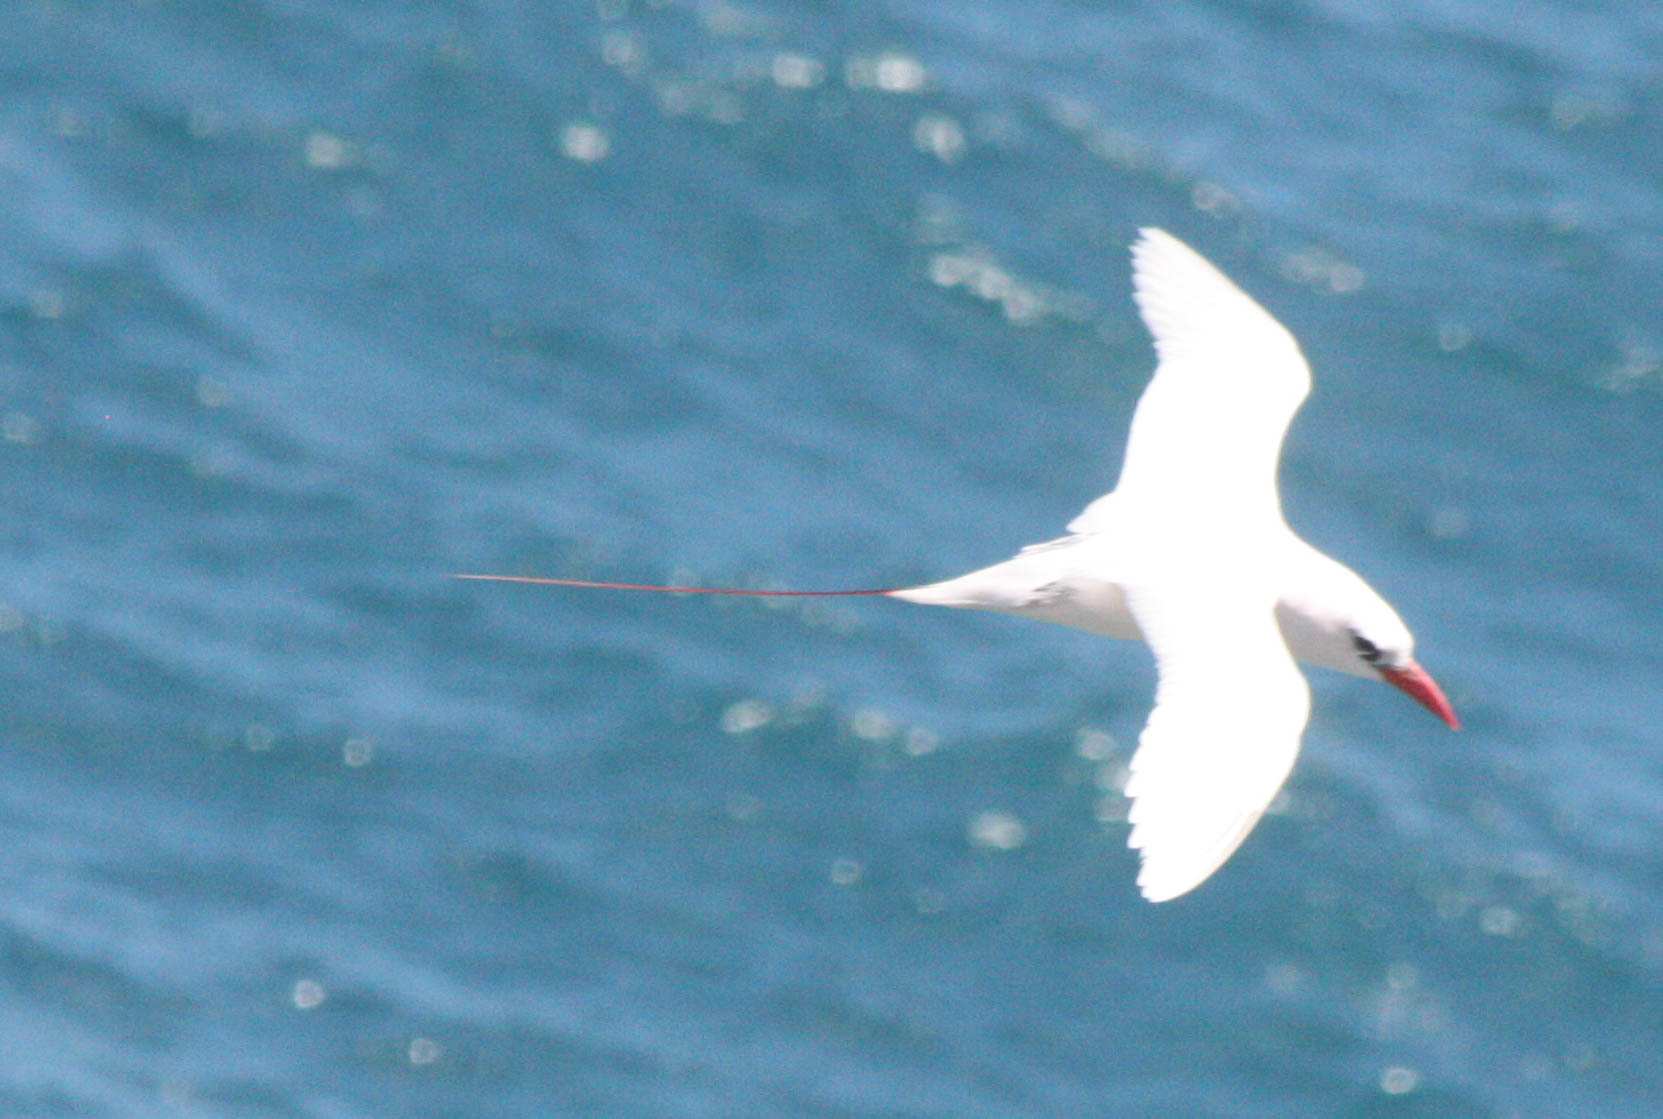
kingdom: Animalia
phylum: Chordata
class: Aves
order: Phaethontiformes
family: Phaethontidae
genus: Phaethon
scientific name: Phaethon rubricauda
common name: Red-tailed tropicbird
